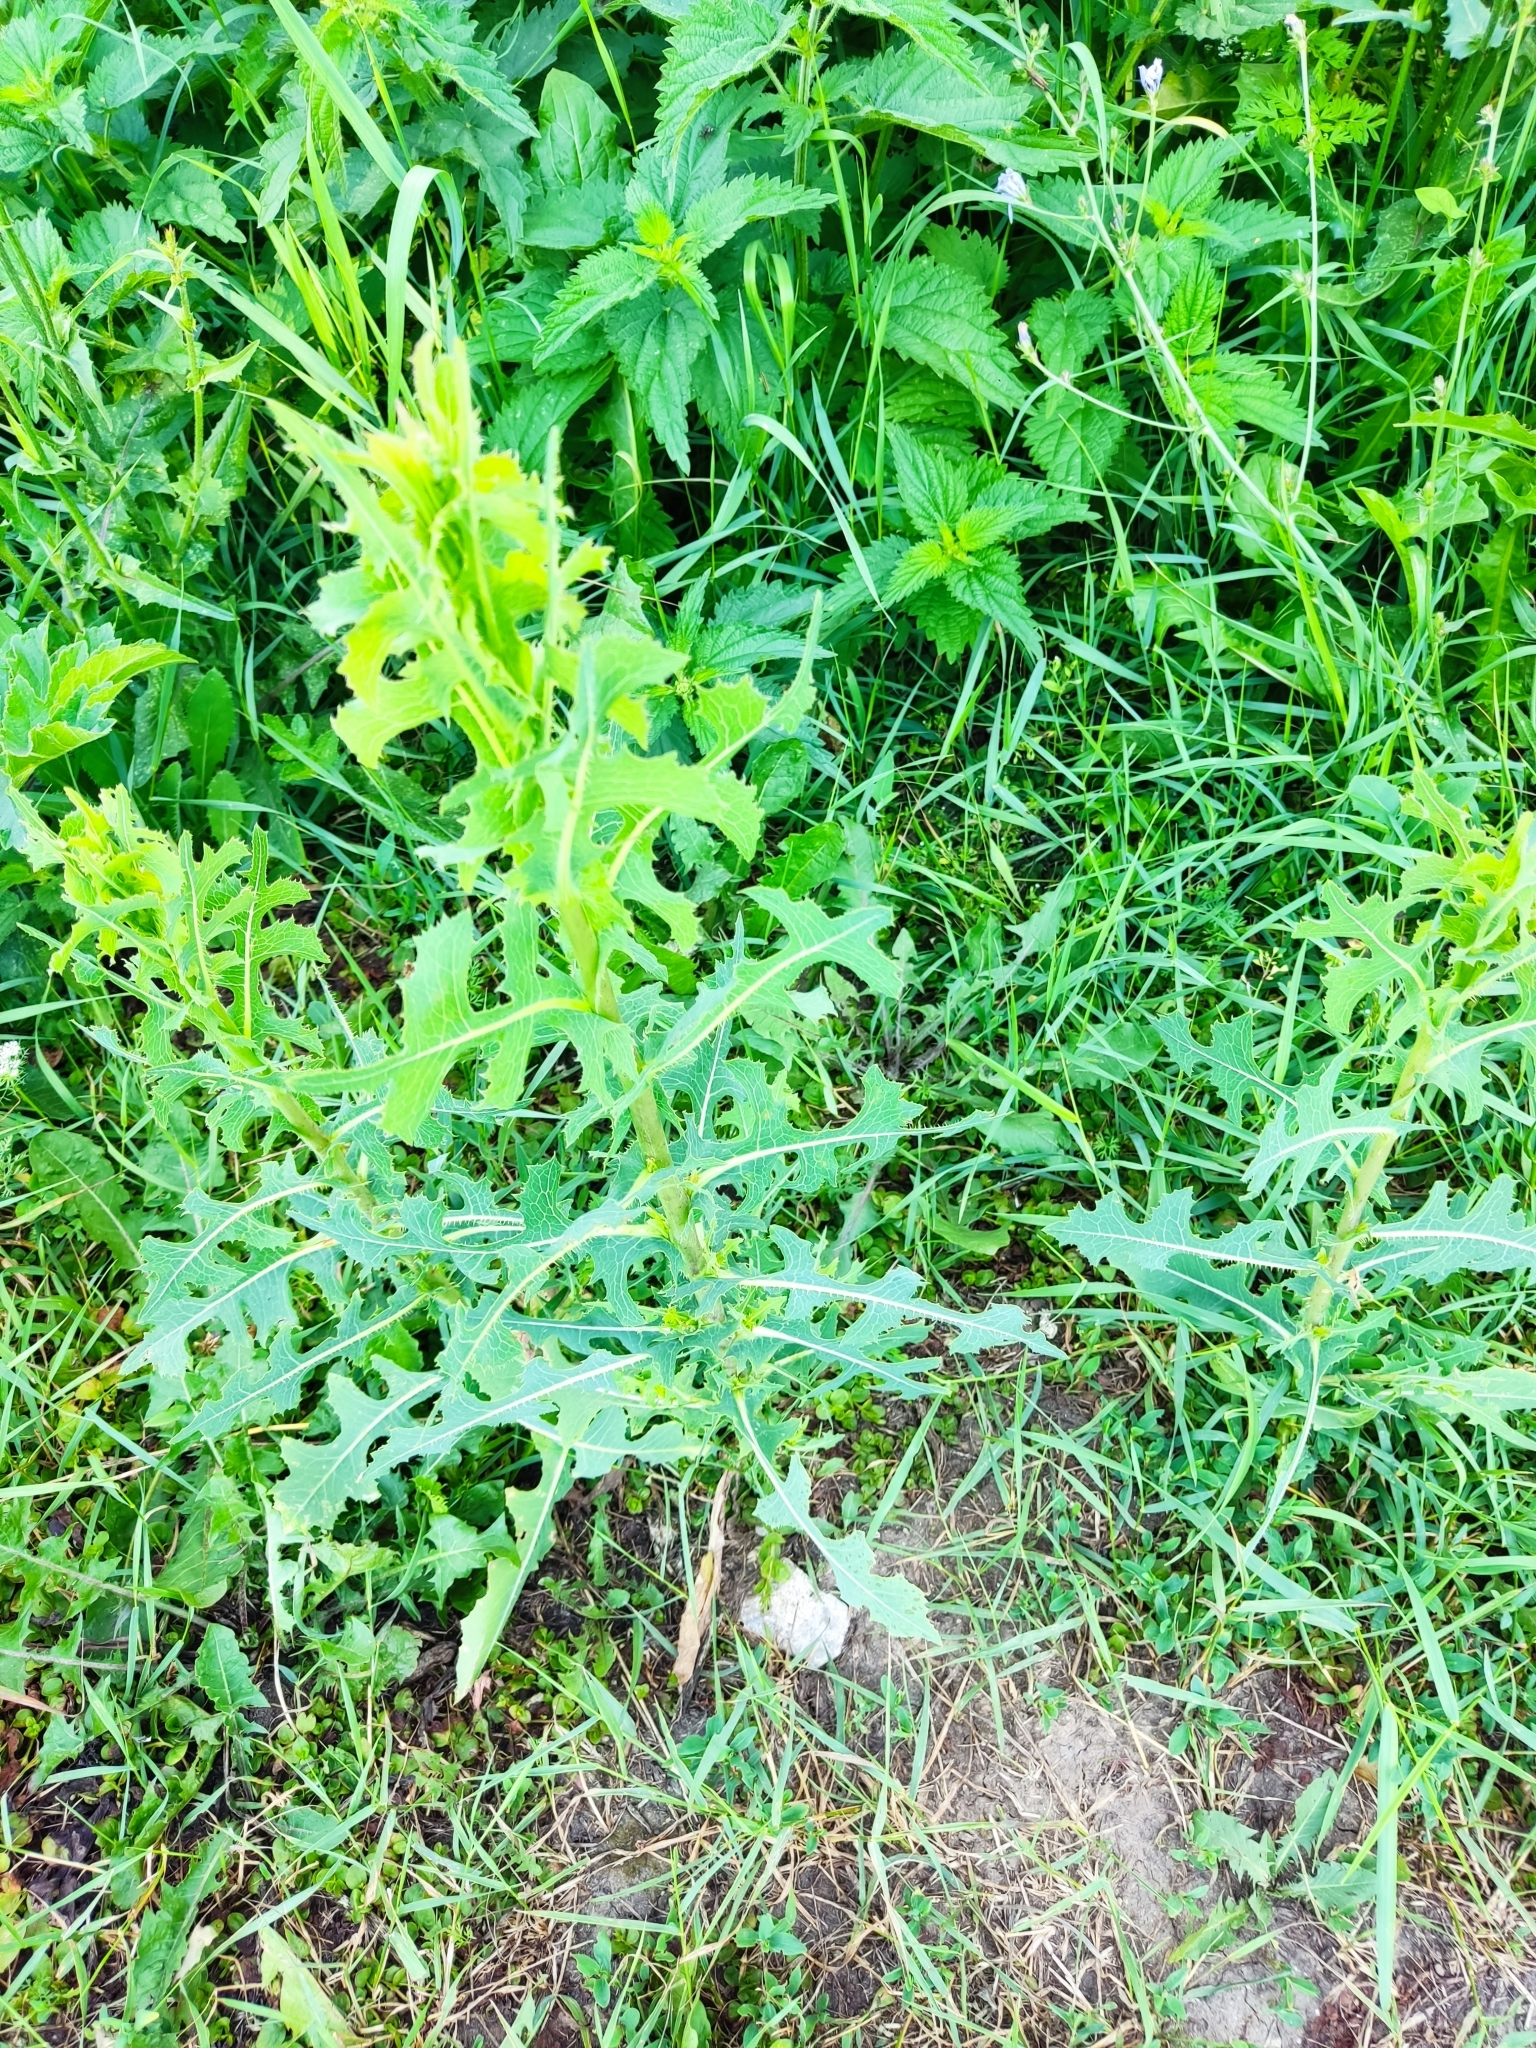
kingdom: Plantae
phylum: Tracheophyta
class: Magnoliopsida
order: Asterales
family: Asteraceae
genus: Lactuca
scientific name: Lactuca serriola
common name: Prickly lettuce
